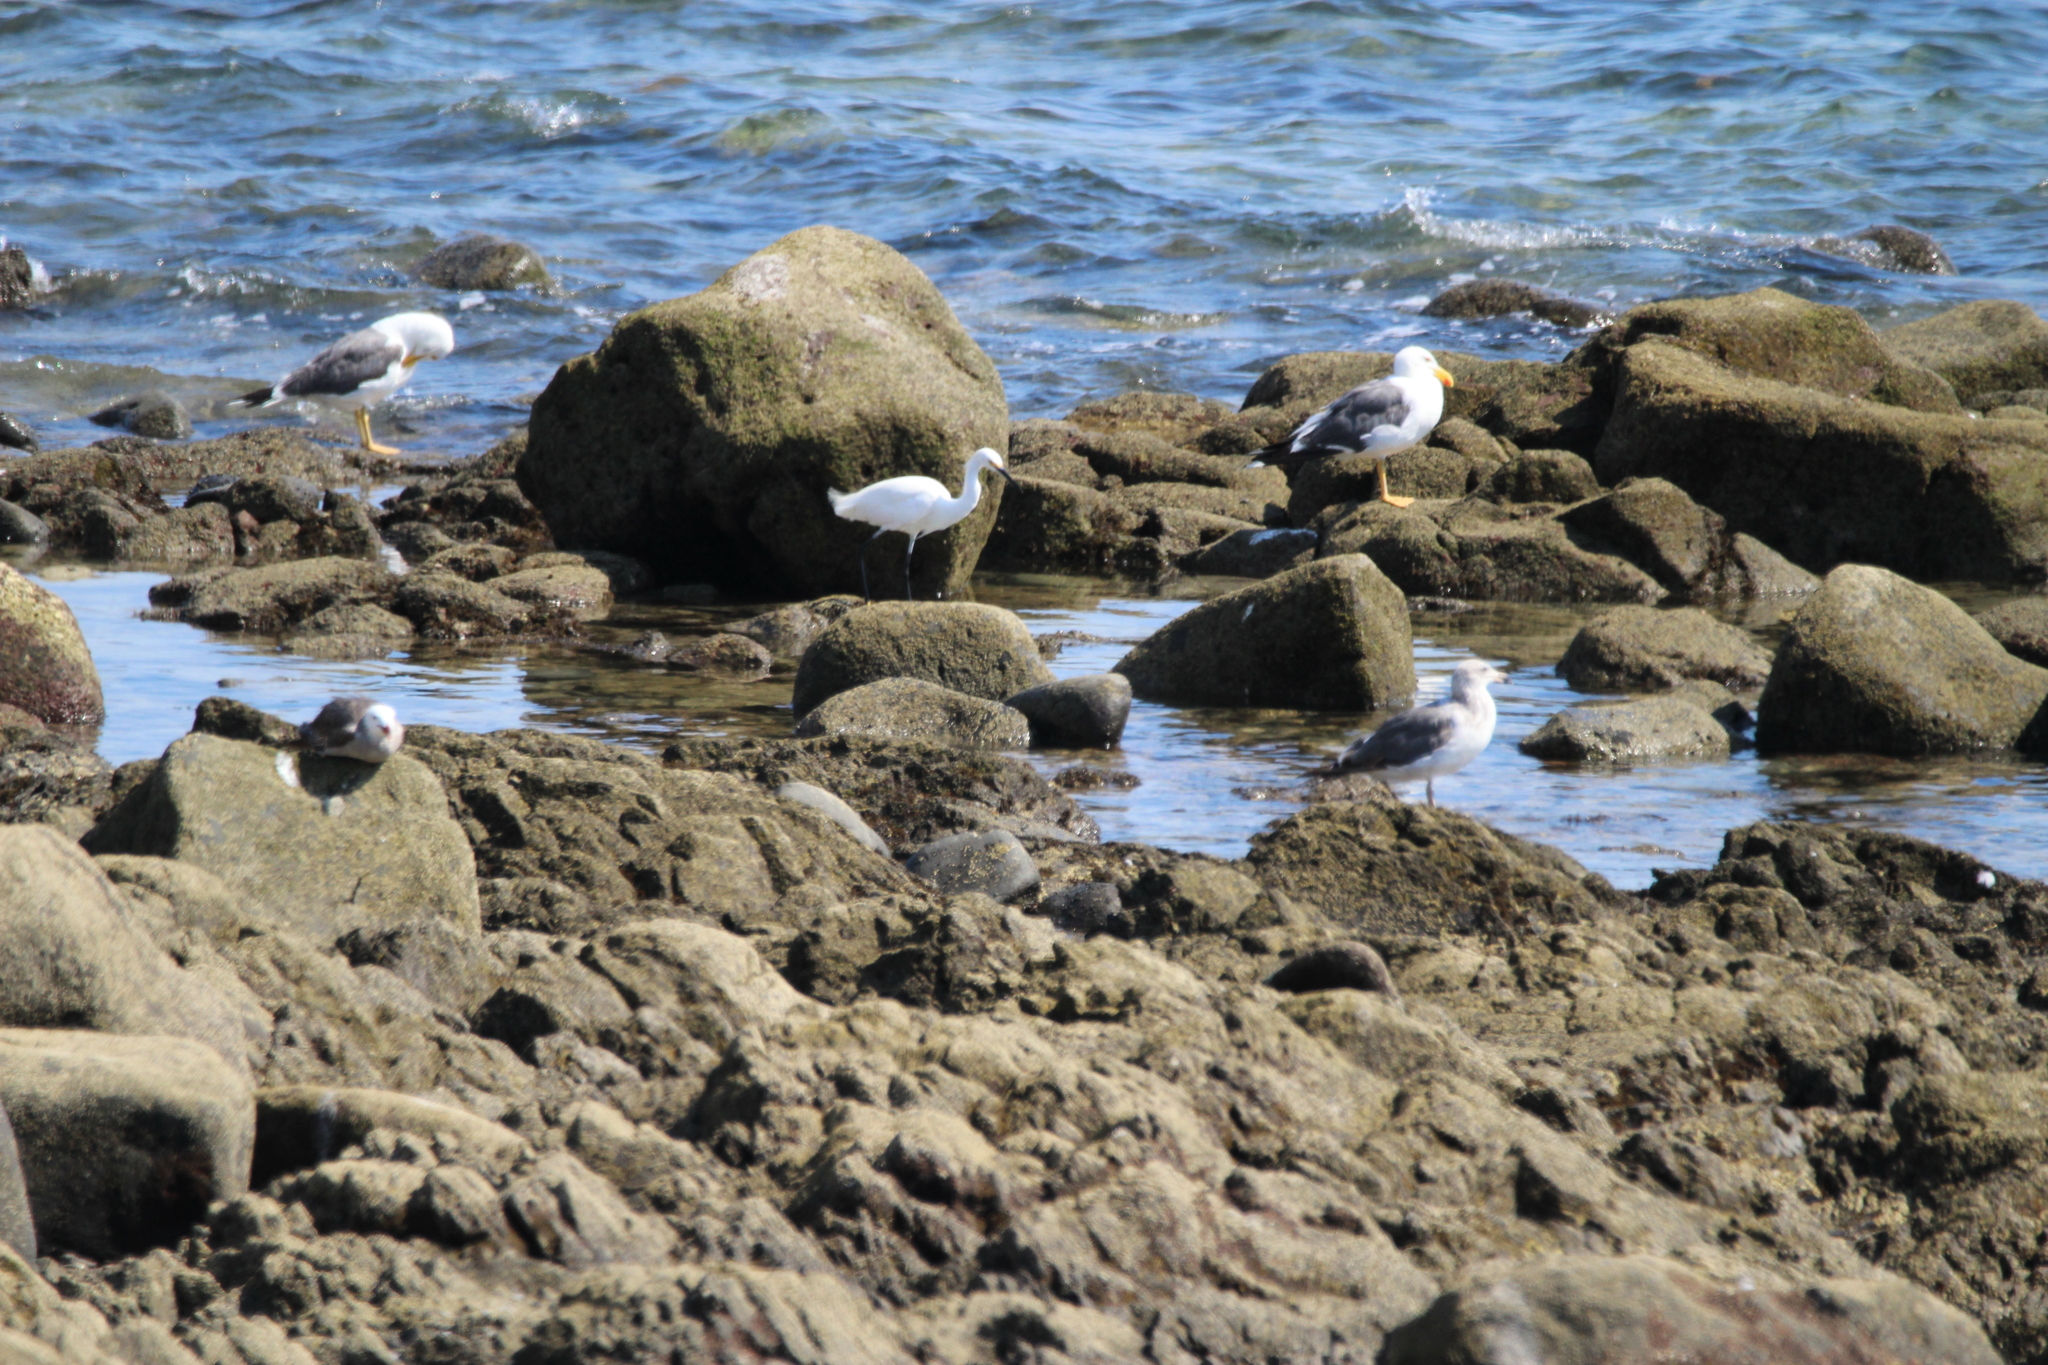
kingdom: Animalia
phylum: Chordata
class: Aves
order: Pelecaniformes
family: Ardeidae
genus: Egretta
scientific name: Egretta thula
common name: Snowy egret
